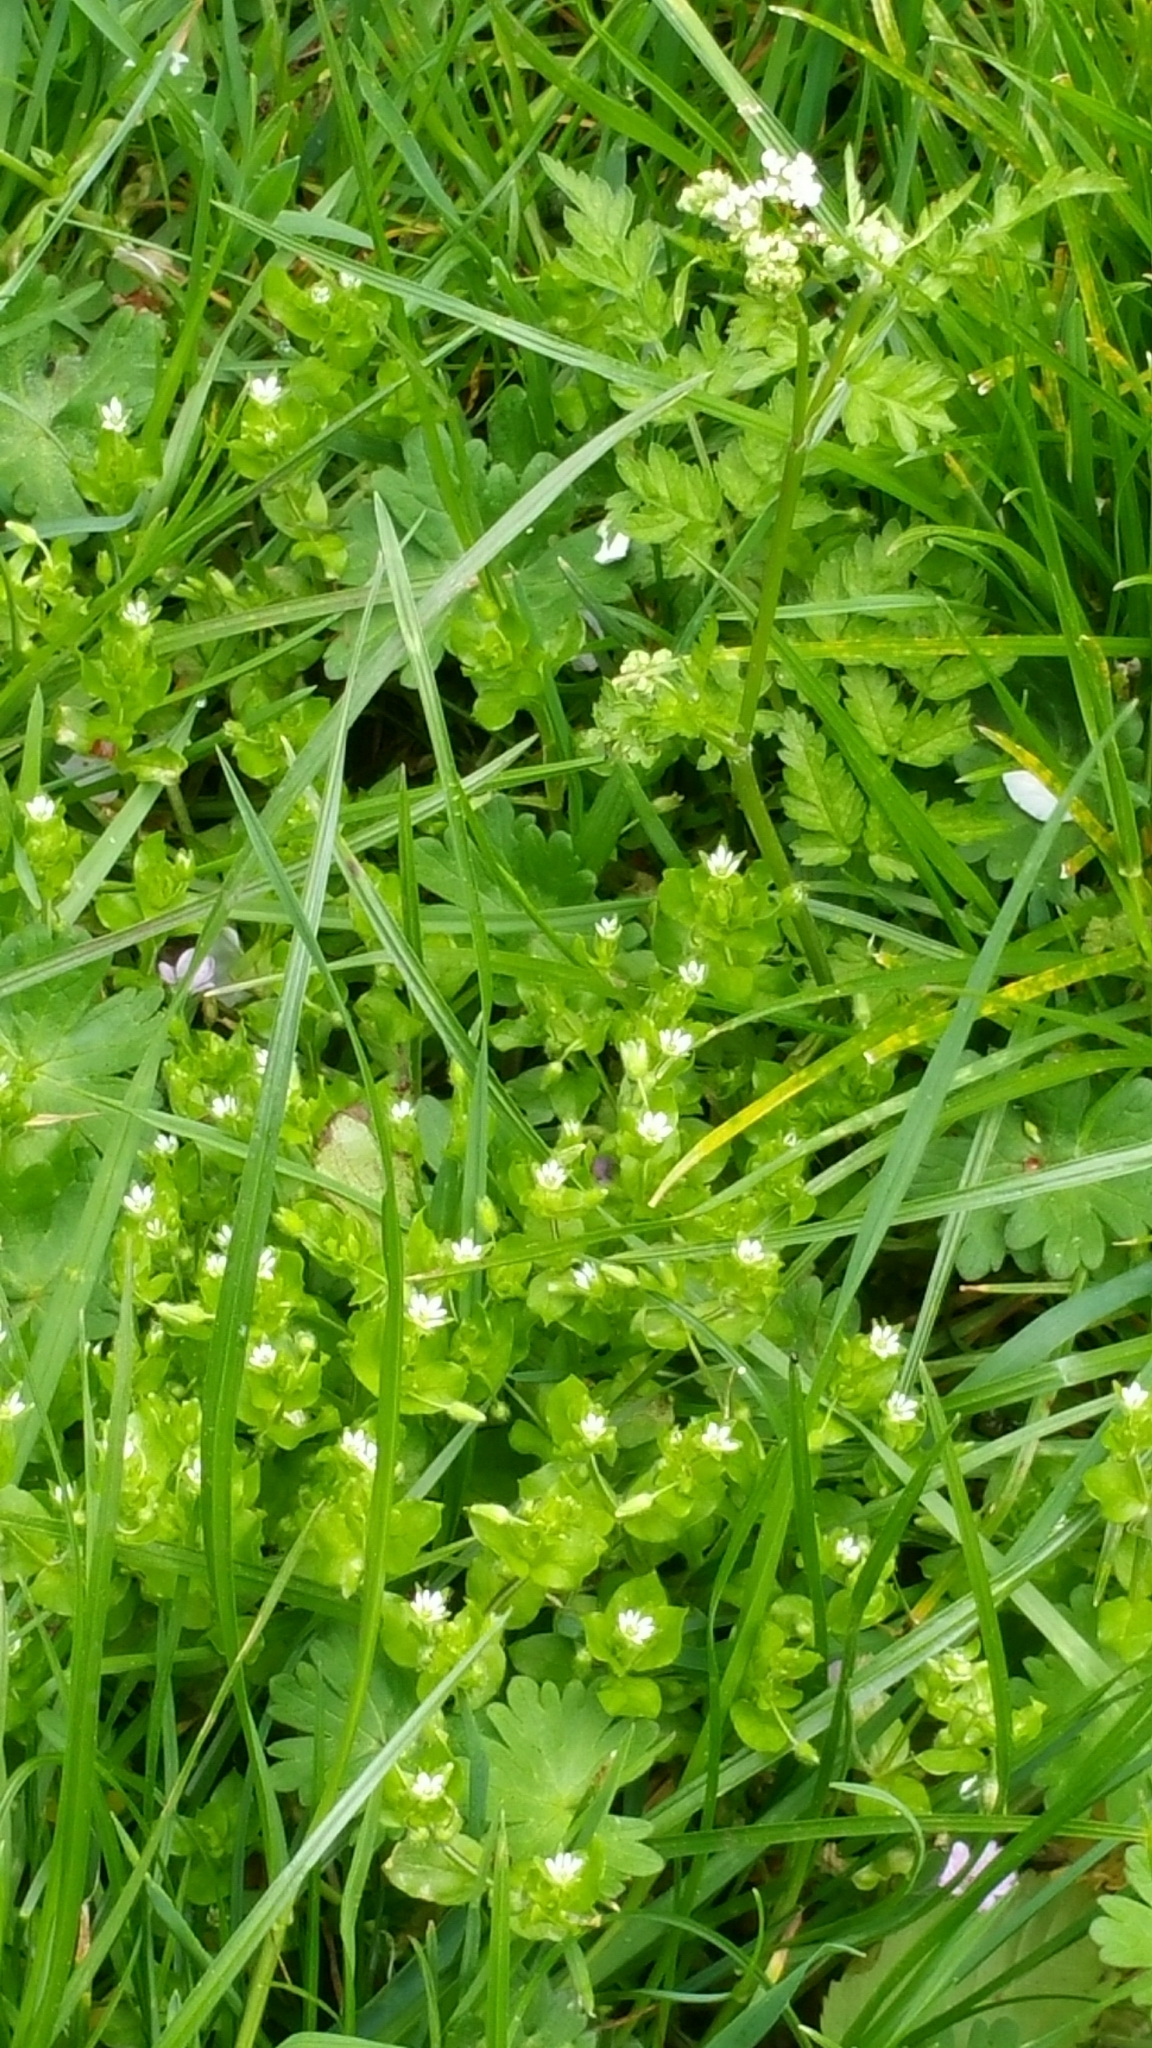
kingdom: Plantae
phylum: Tracheophyta
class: Magnoliopsida
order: Caryophyllales
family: Caryophyllaceae
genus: Stellaria
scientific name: Stellaria media
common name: Common chickweed
